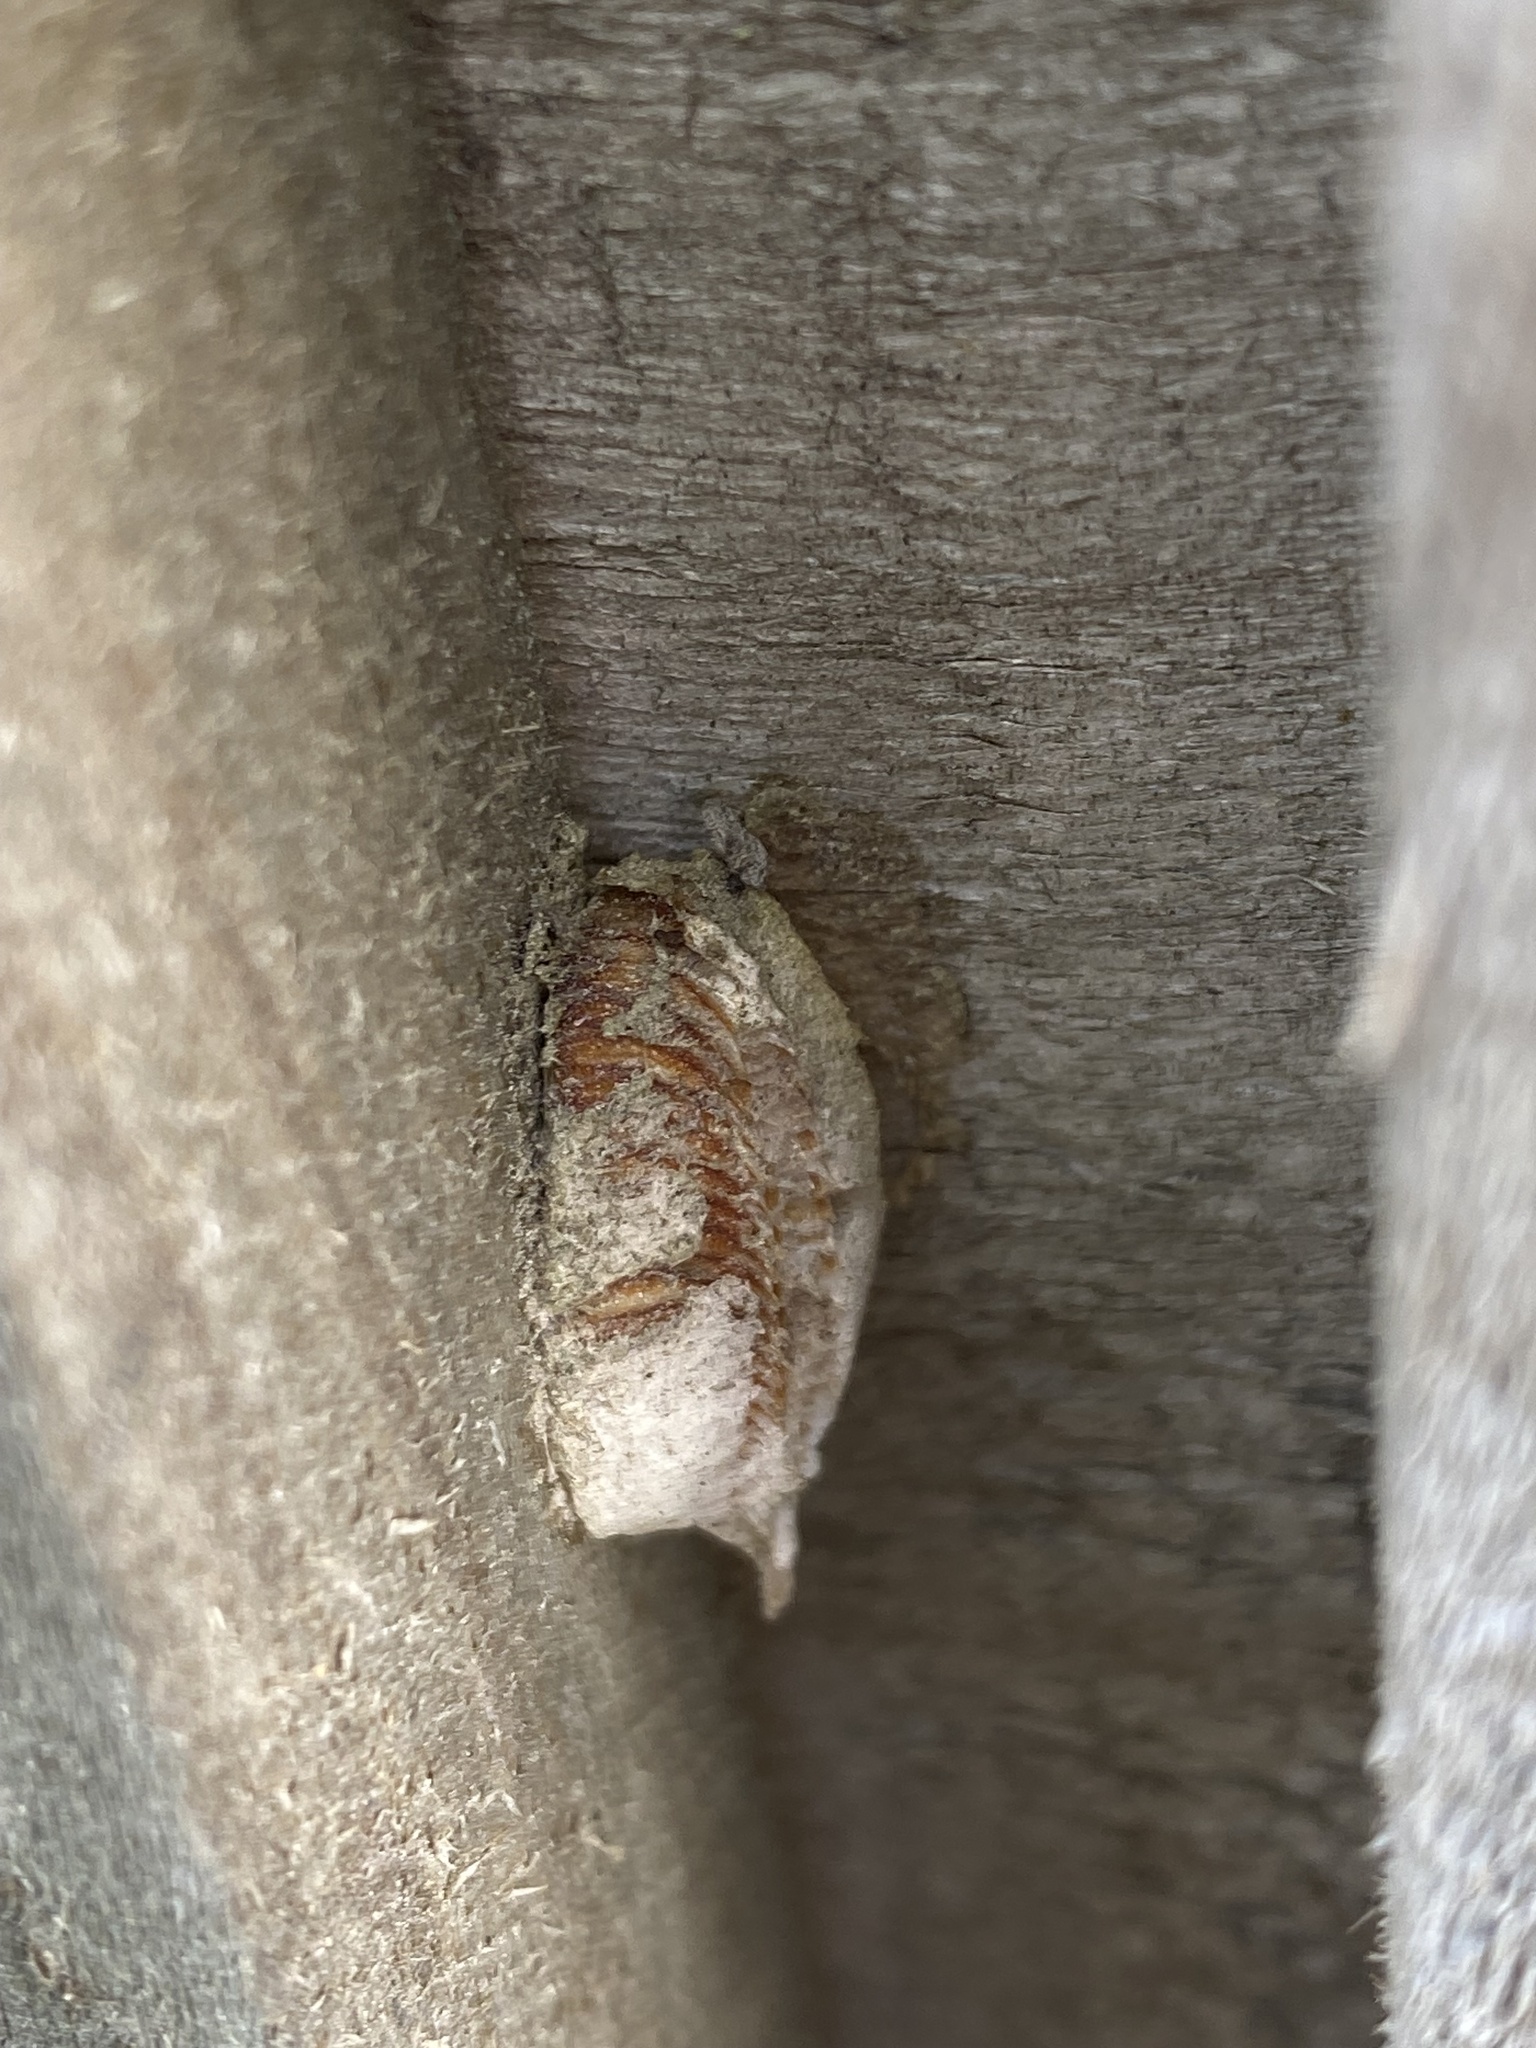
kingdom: Animalia
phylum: Arthropoda
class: Insecta
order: Mantodea
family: Miomantidae
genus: Miomantis
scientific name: Miomantis caffra
